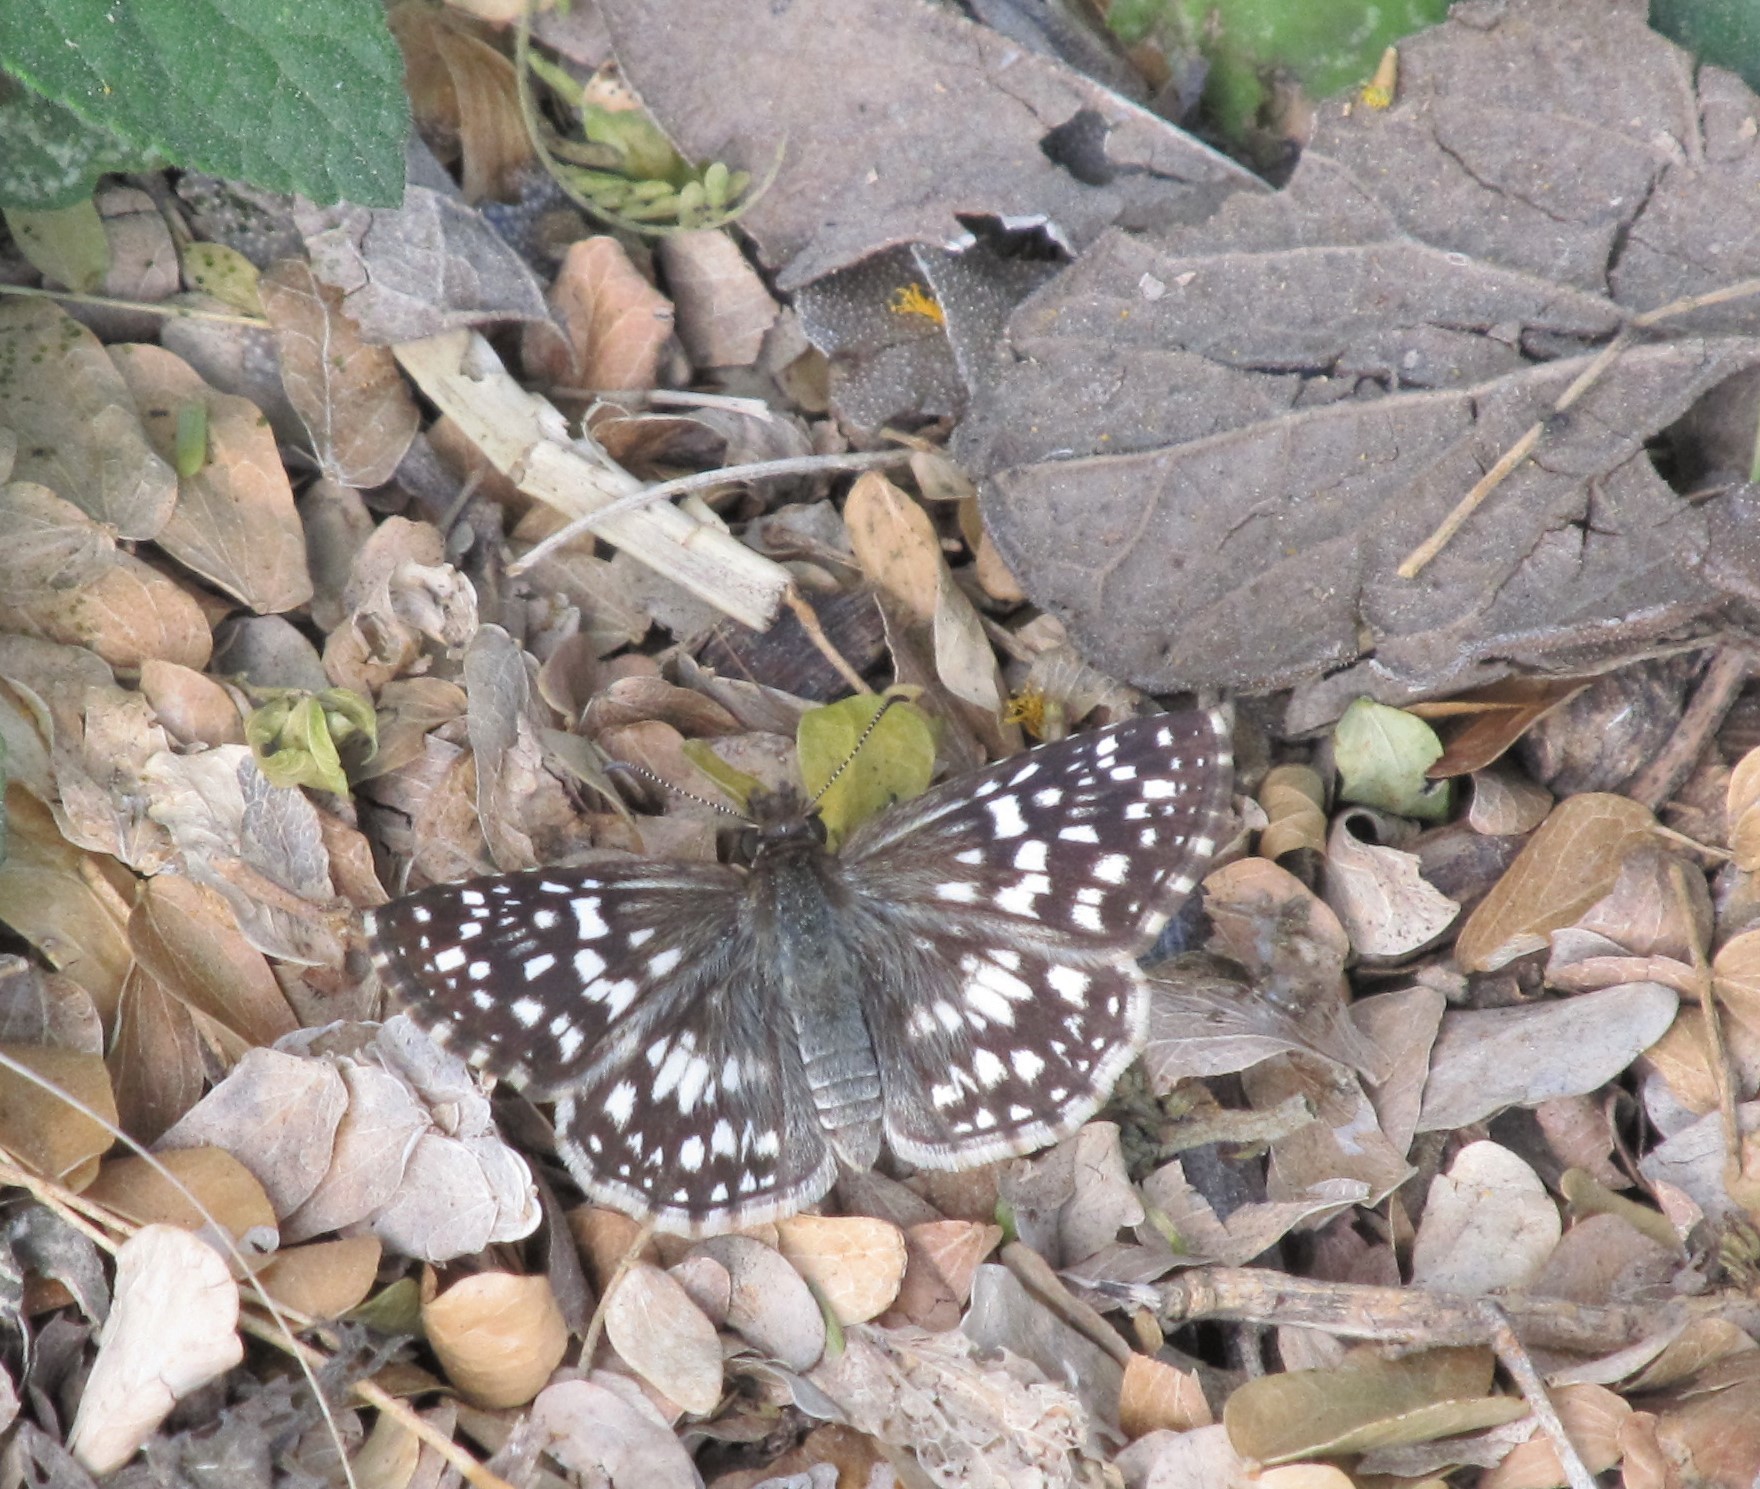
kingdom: Animalia
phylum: Arthropoda
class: Insecta
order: Lepidoptera
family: Hesperiidae
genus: Pyrgus
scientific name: Pyrgus oileus
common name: Tropical checkered-skipper
